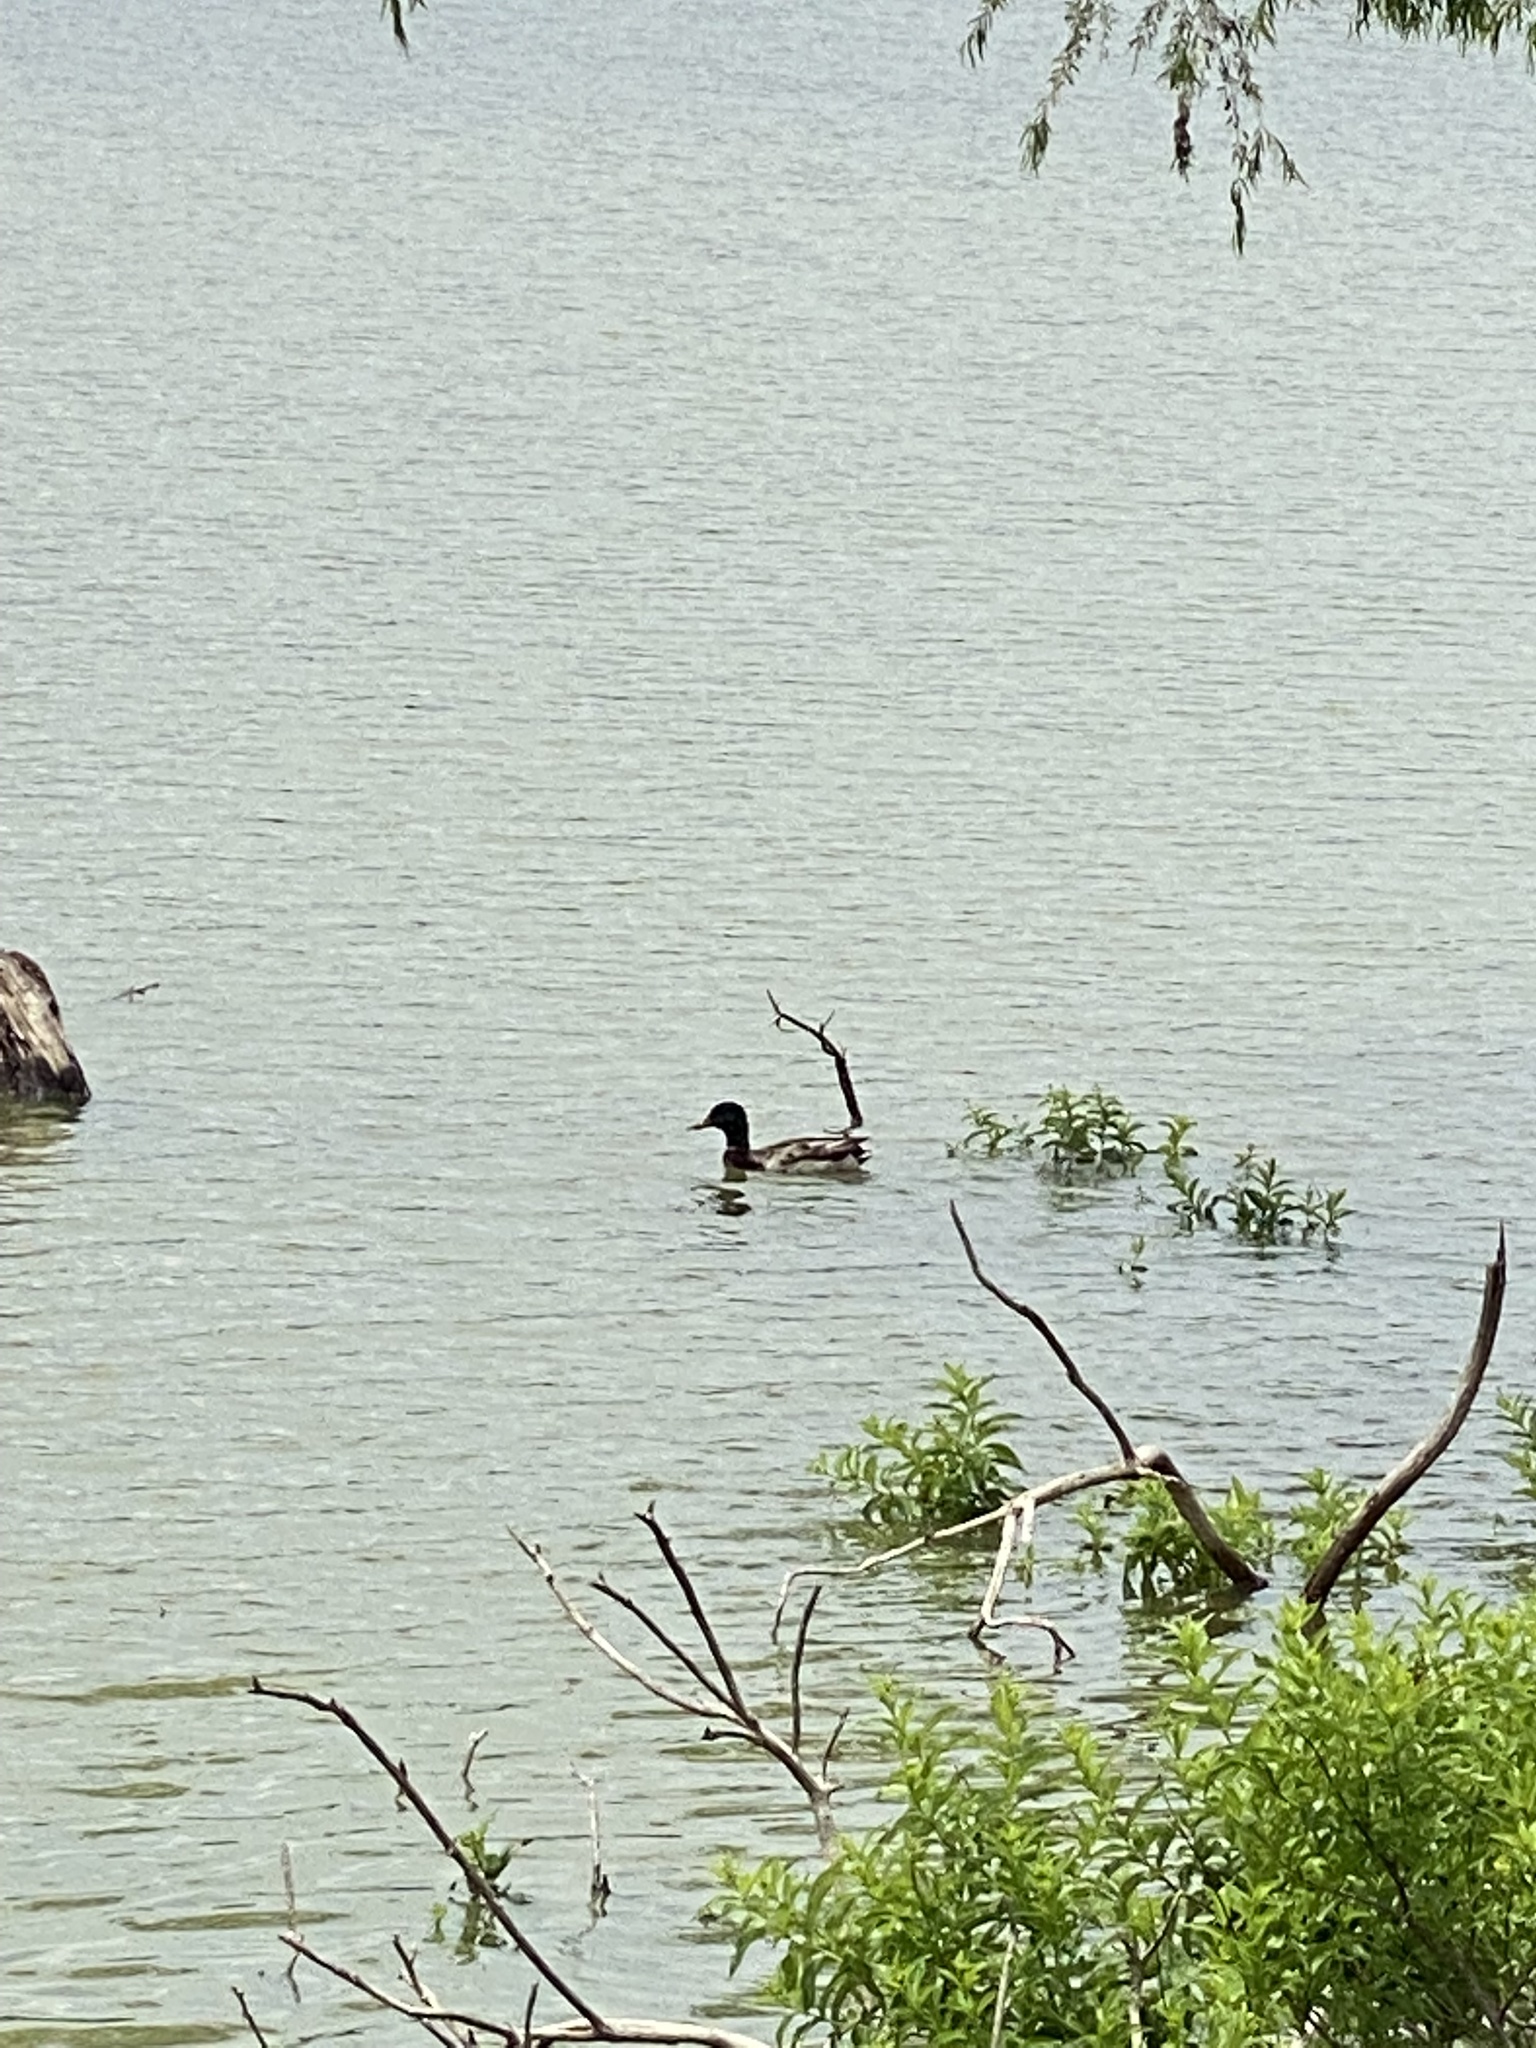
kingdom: Animalia
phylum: Chordata
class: Aves
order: Anseriformes
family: Anatidae
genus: Anas
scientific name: Anas platyrhynchos
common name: Mallard
